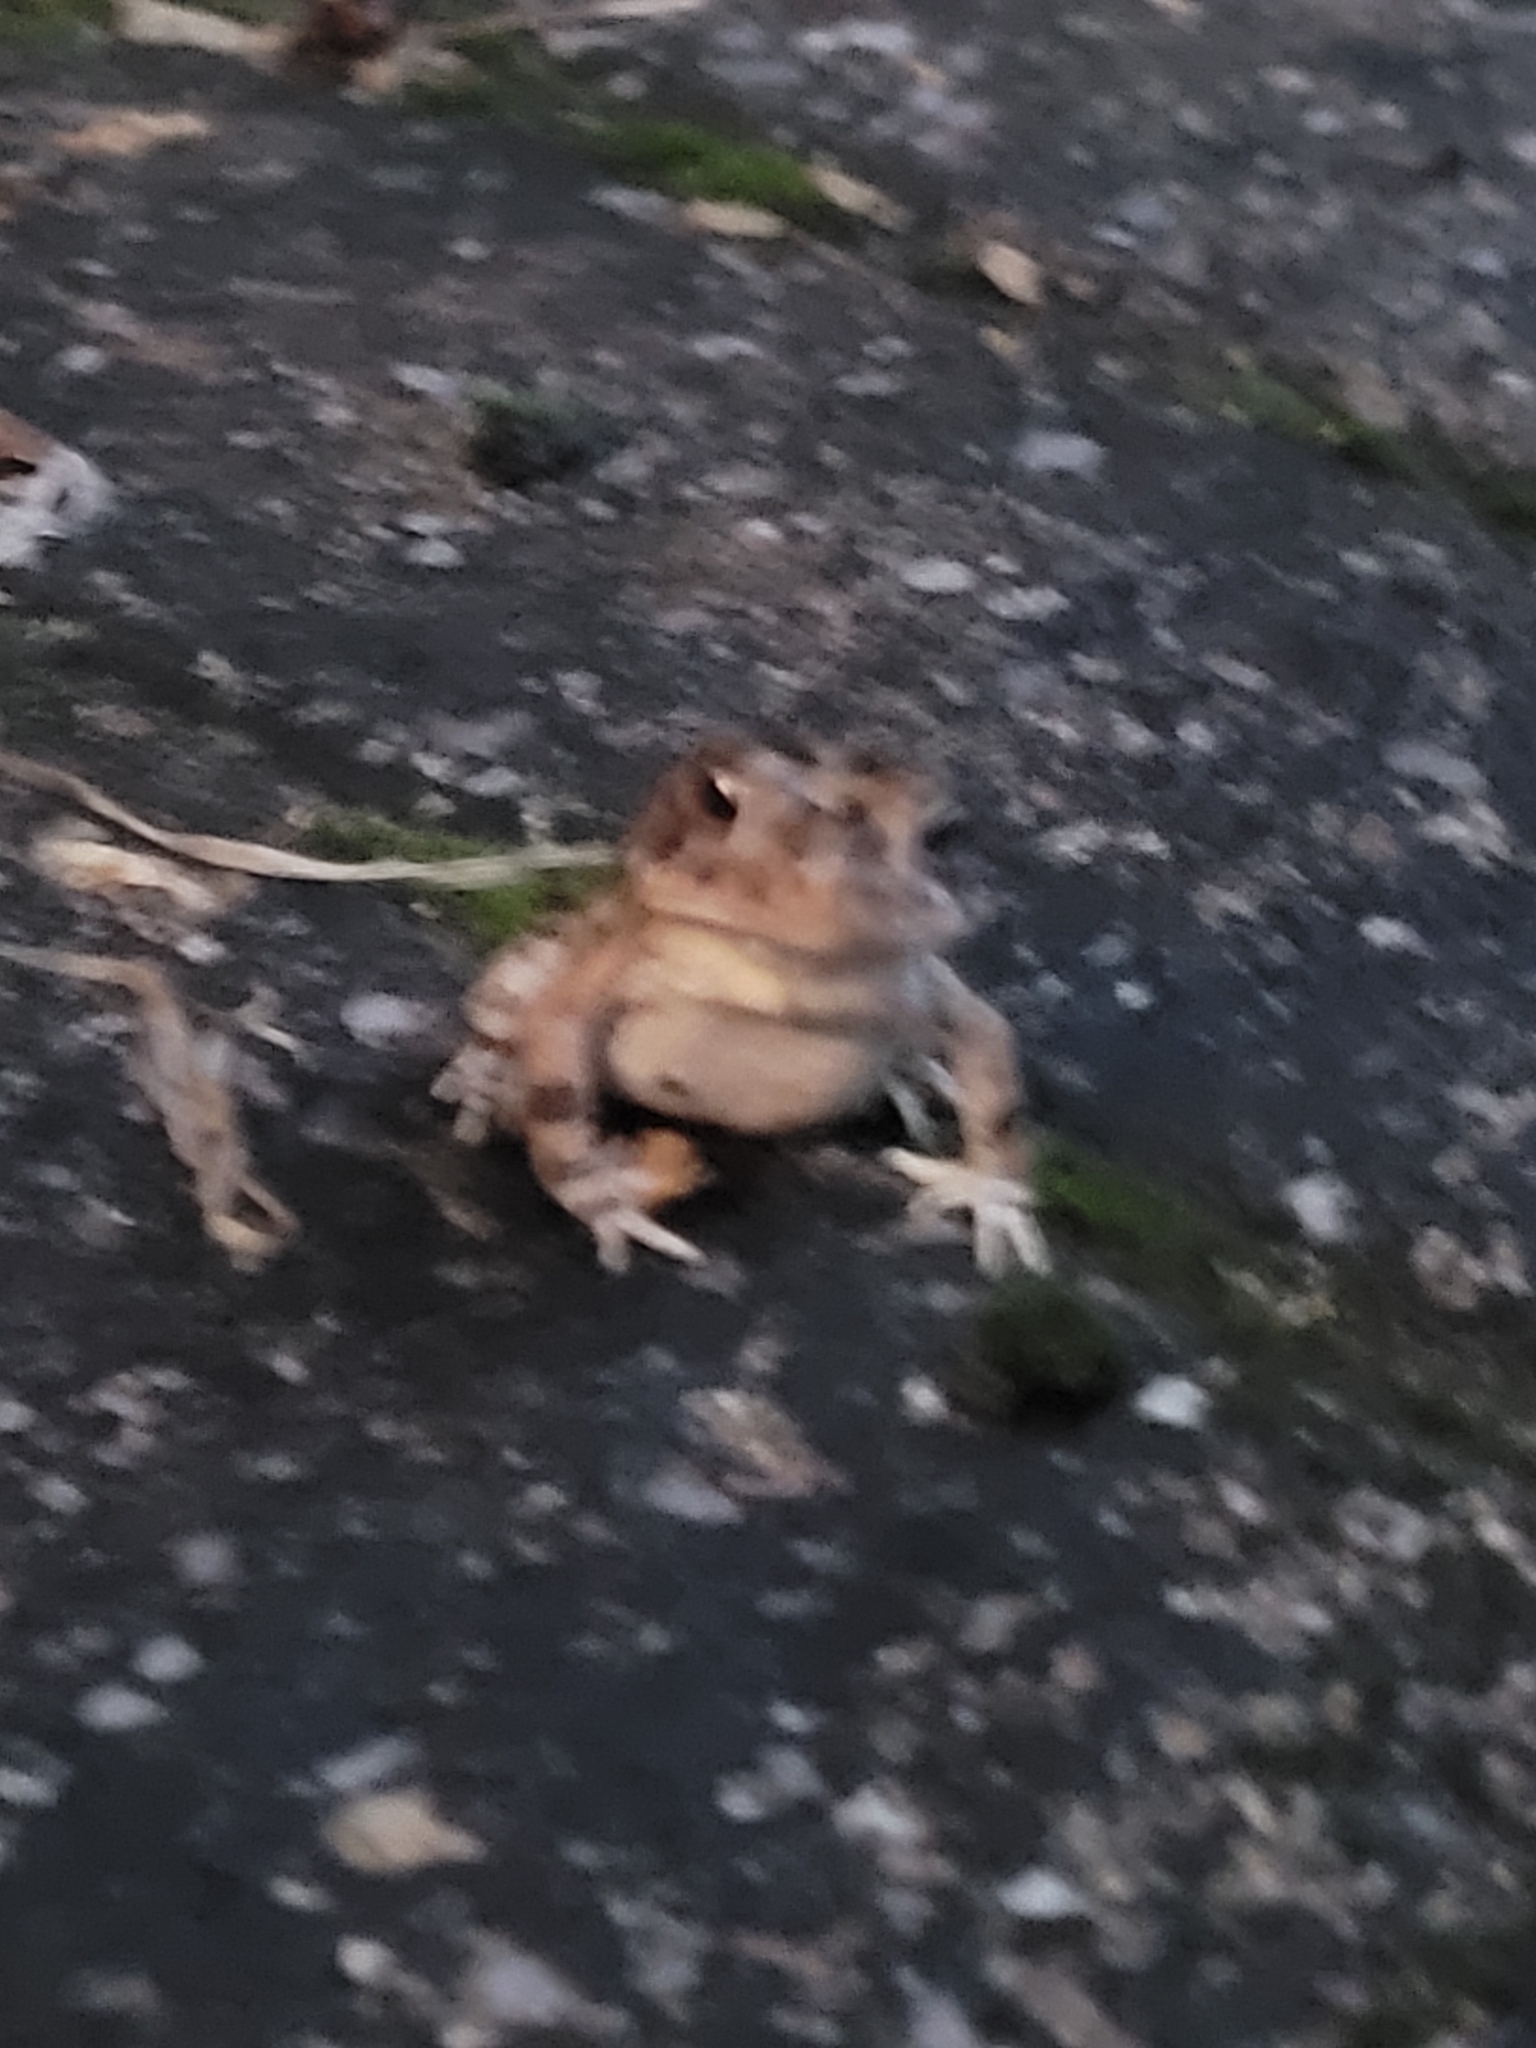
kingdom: Animalia
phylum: Chordata
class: Amphibia
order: Anura
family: Bufonidae
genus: Anaxyrus
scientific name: Anaxyrus terrestris
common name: Southern toad
